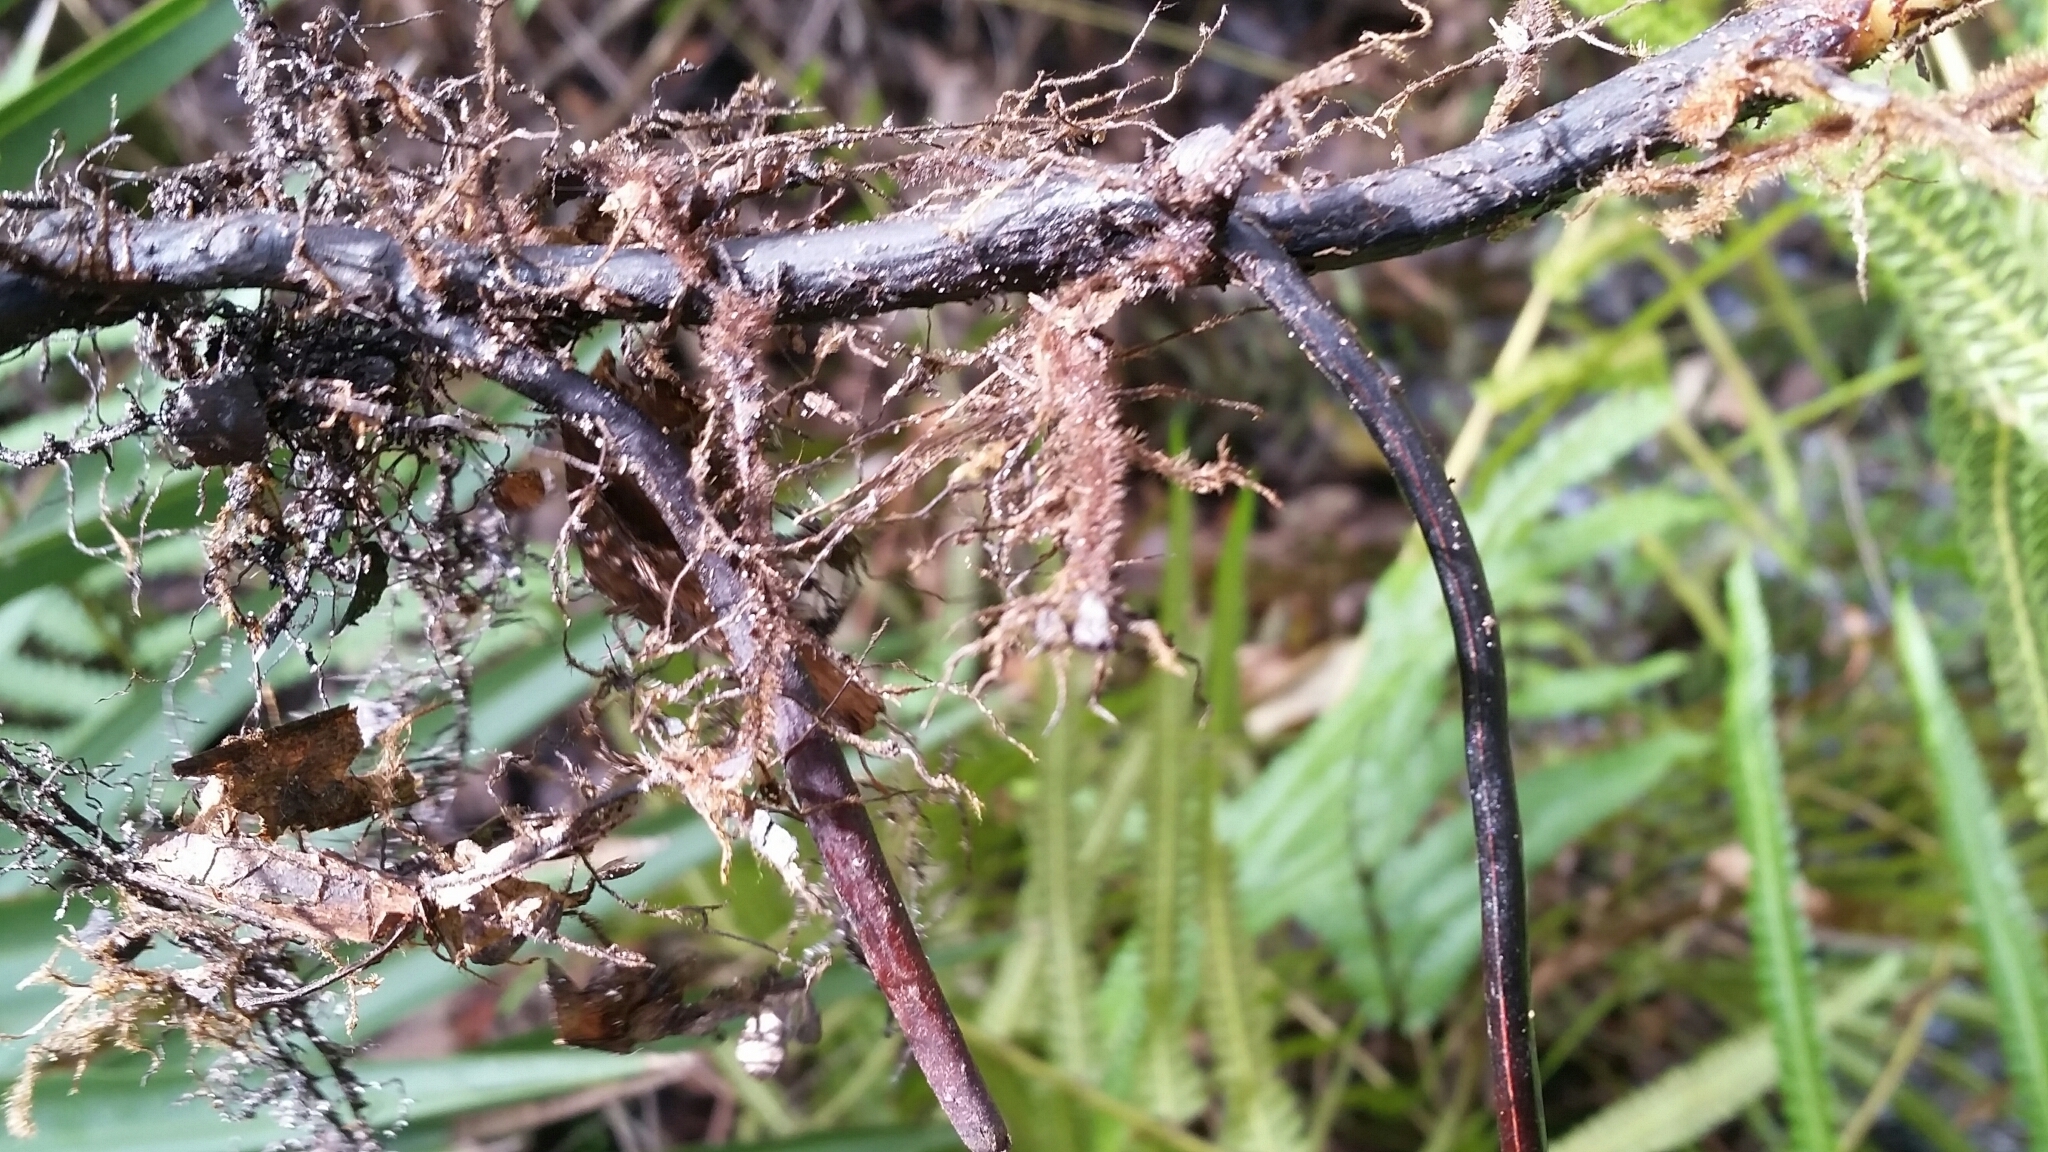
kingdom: Plantae
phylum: Tracheophyta
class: Polypodiopsida
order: Polypodiales
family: Thelypteridaceae
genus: Cyclosorus
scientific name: Cyclosorus interruptus
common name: Neke fern
